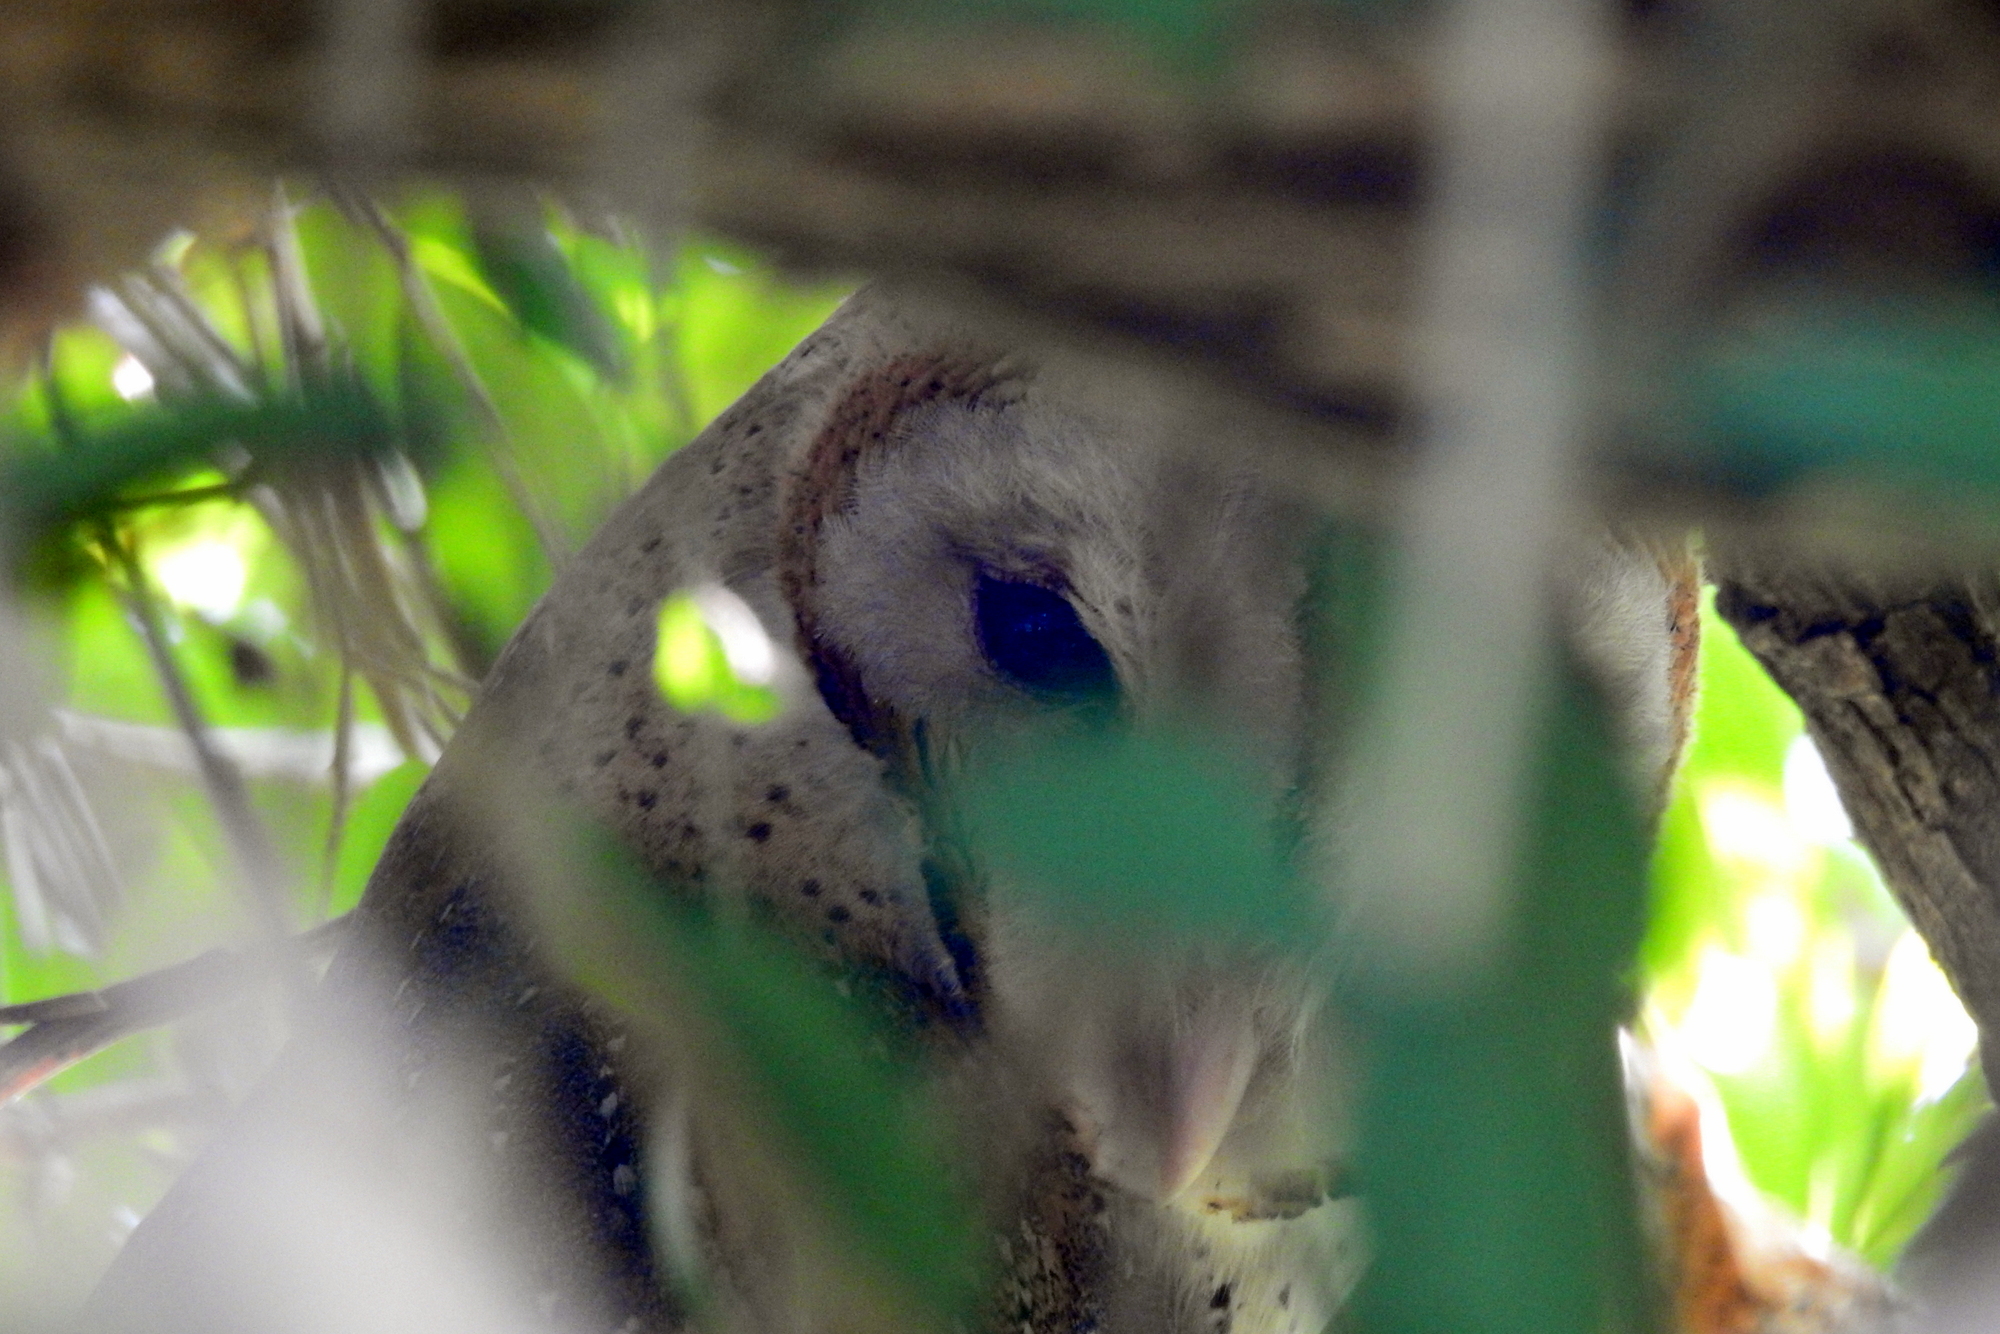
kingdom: Animalia
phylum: Chordata
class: Aves
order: Strigiformes
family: Tytonidae
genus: Tyto
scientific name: Tyto alba
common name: Barn owl
